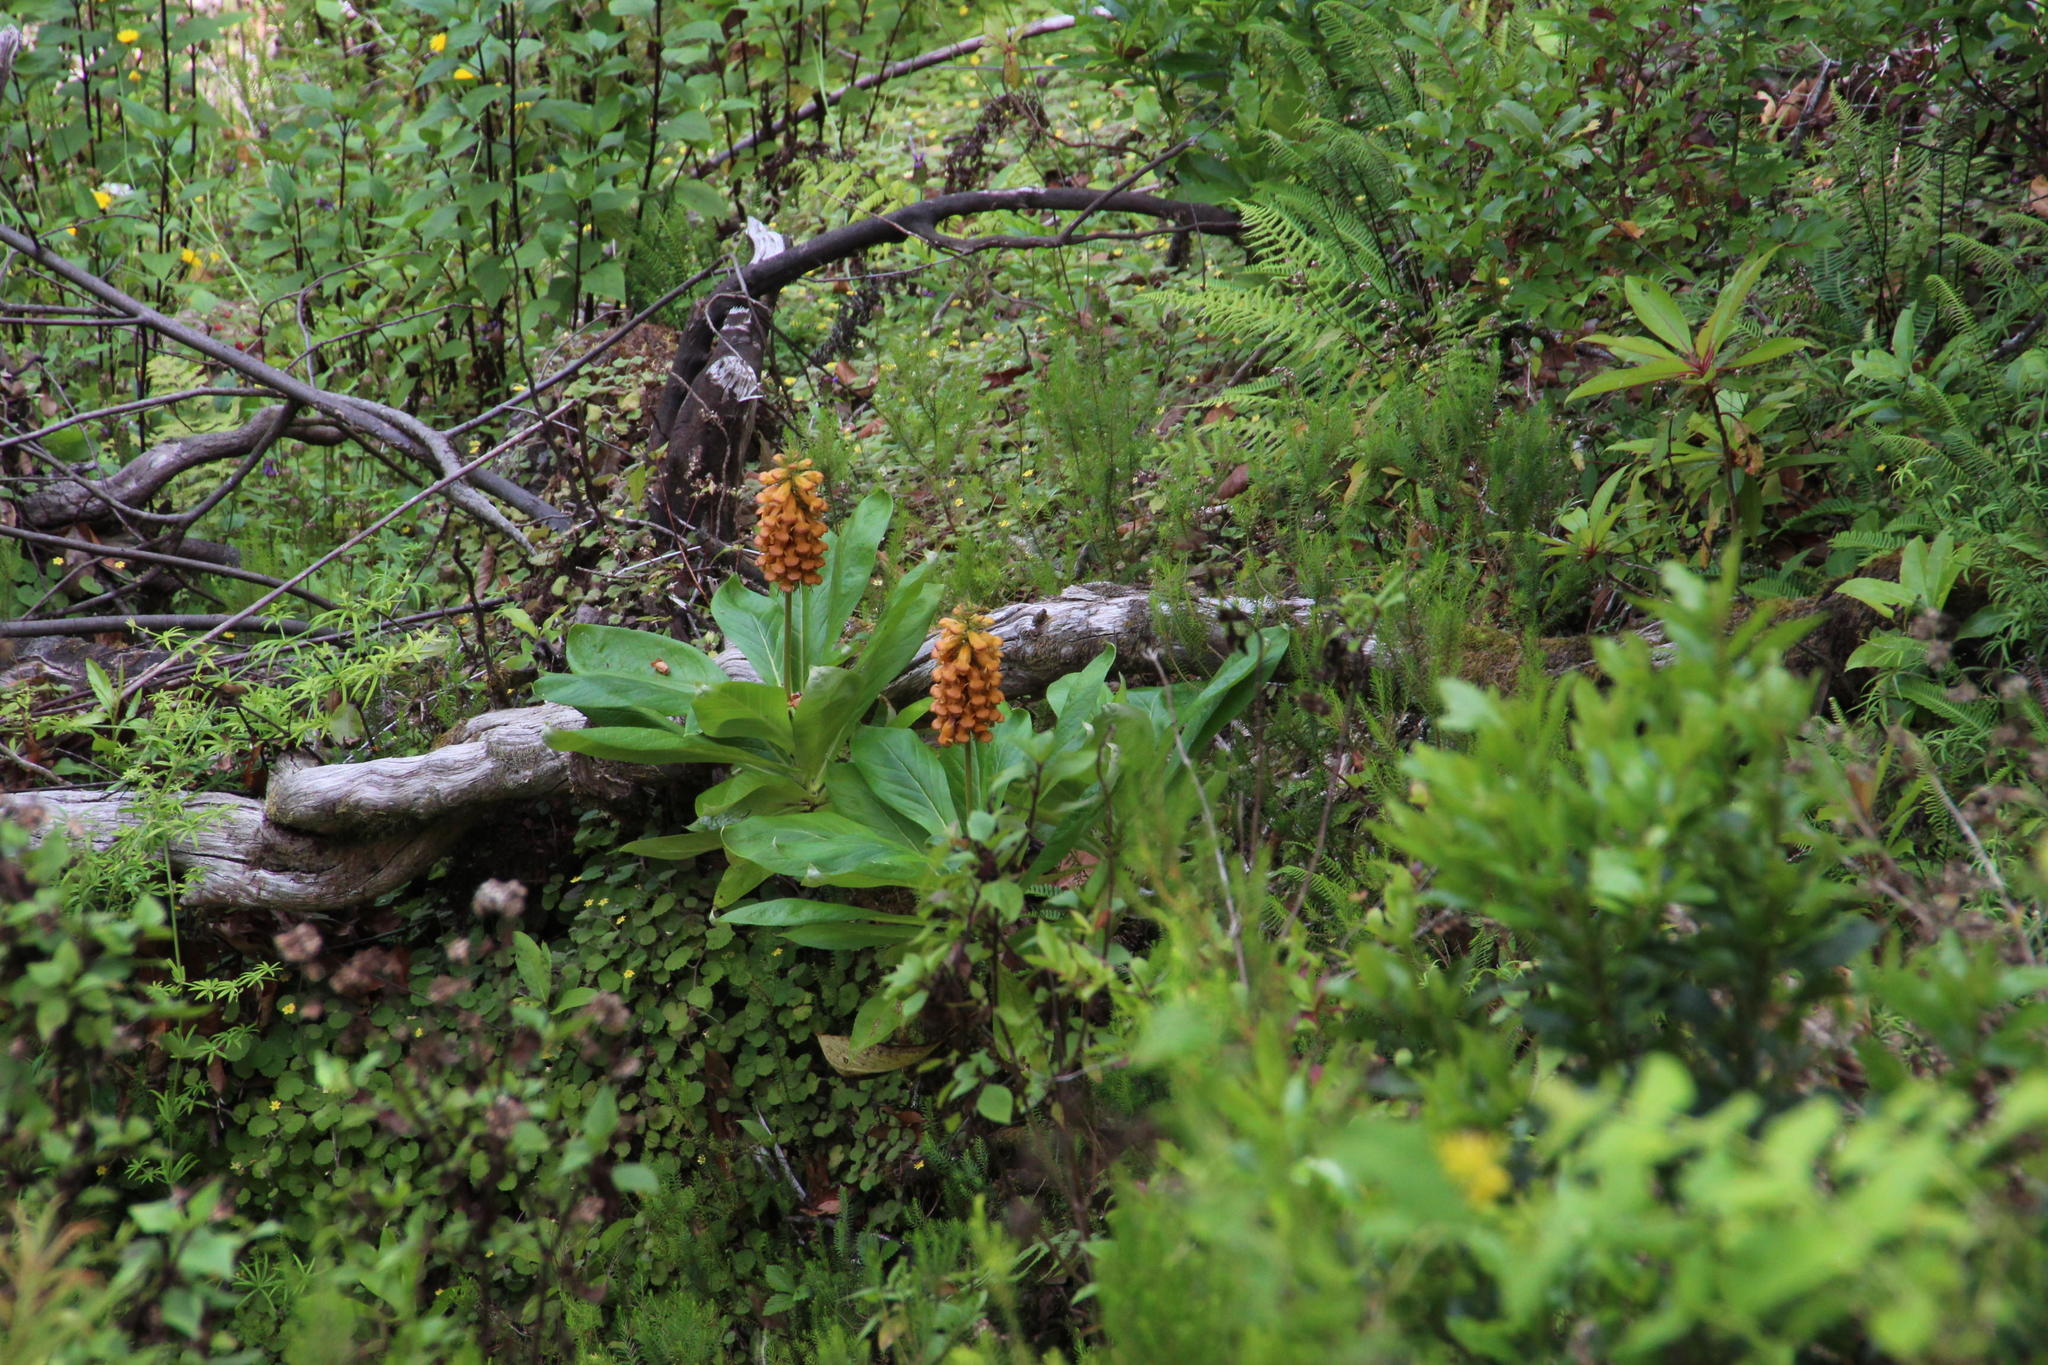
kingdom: Plantae
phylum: Tracheophyta
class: Magnoliopsida
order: Lamiales
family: Plantaginaceae
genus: Digitalis
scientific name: Digitalis sceptrum
